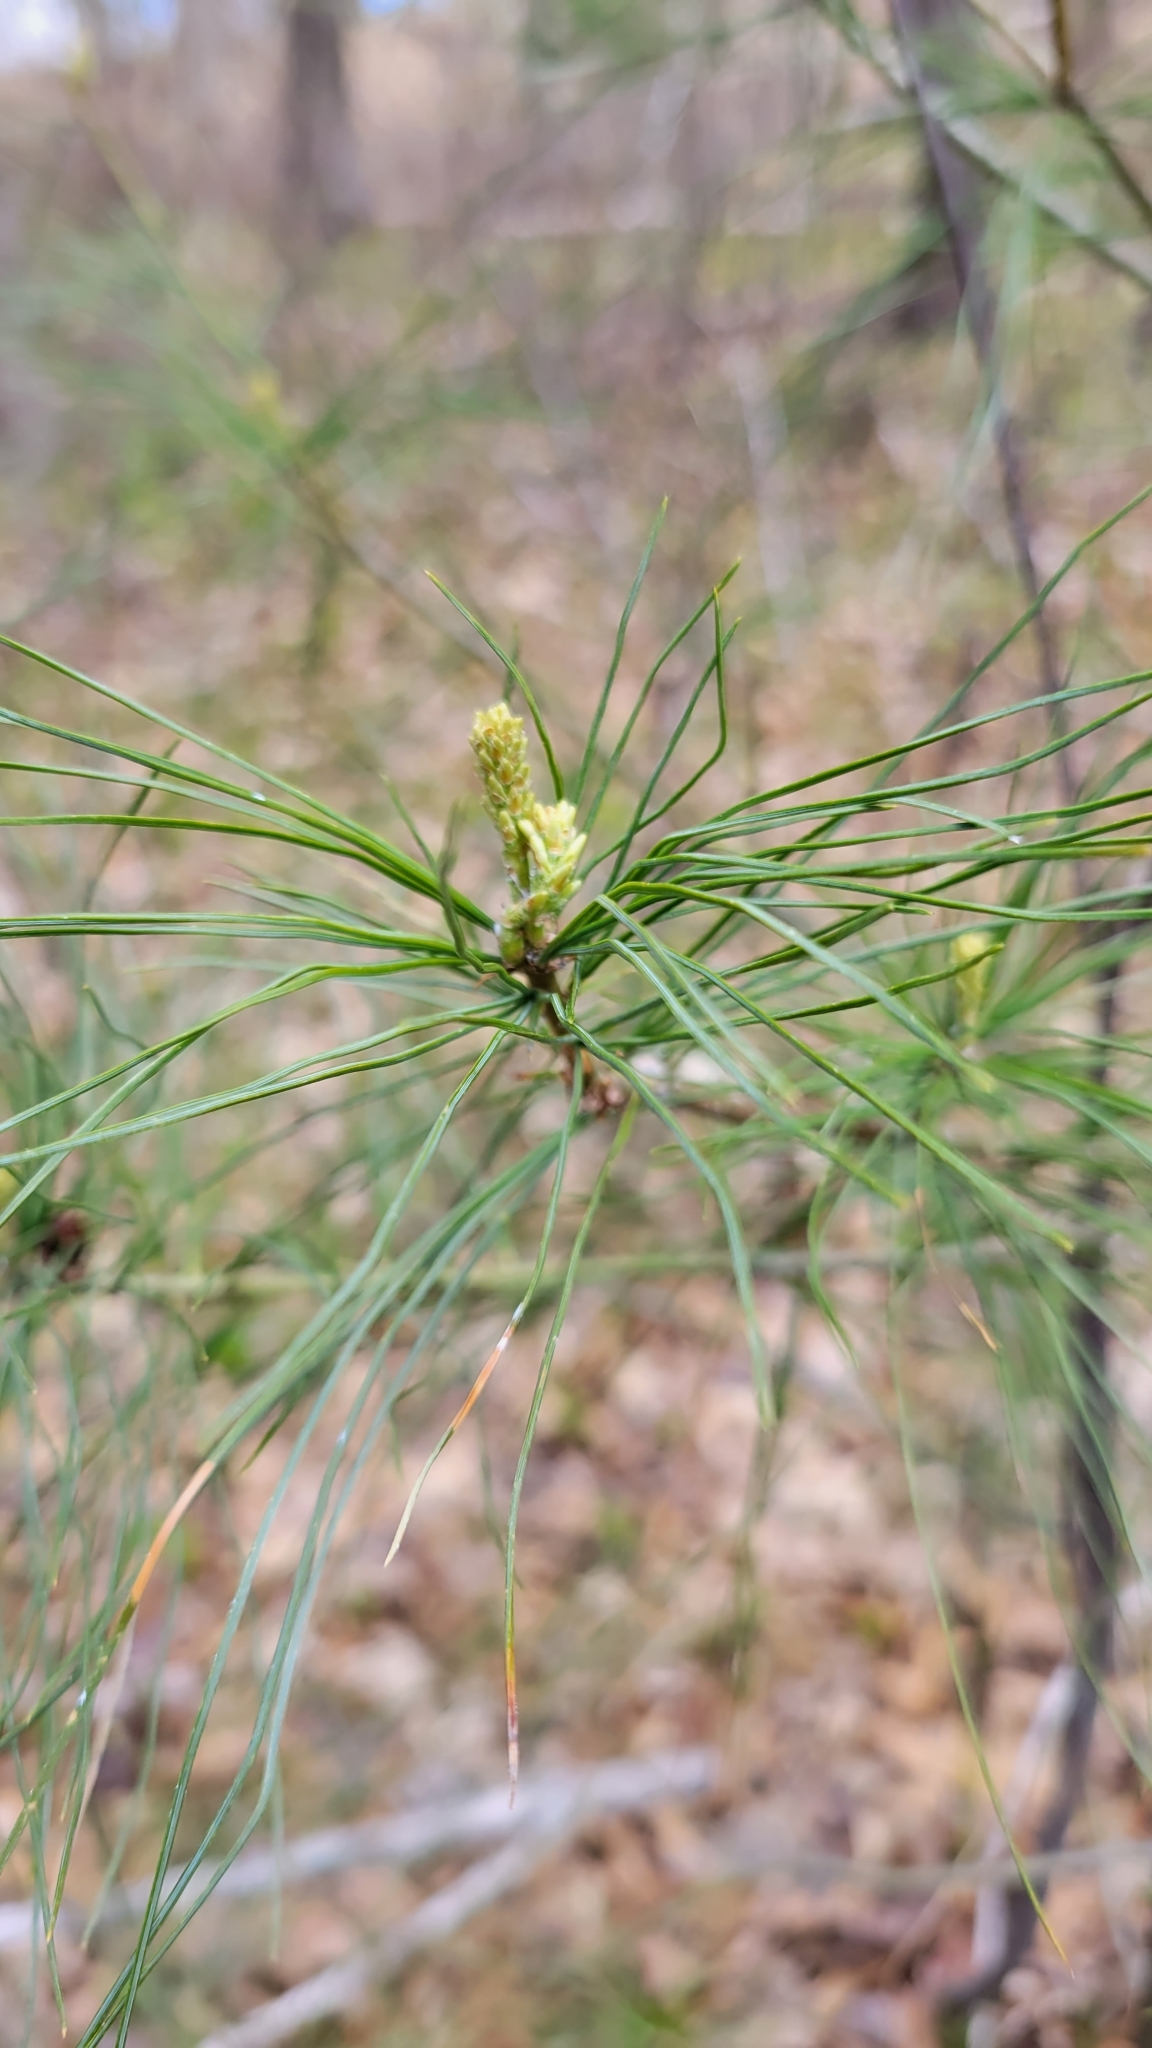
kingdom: Plantae
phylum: Tracheophyta
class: Pinopsida
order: Pinales
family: Pinaceae
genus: Pinus
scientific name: Pinus strobus
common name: Weymouth pine
